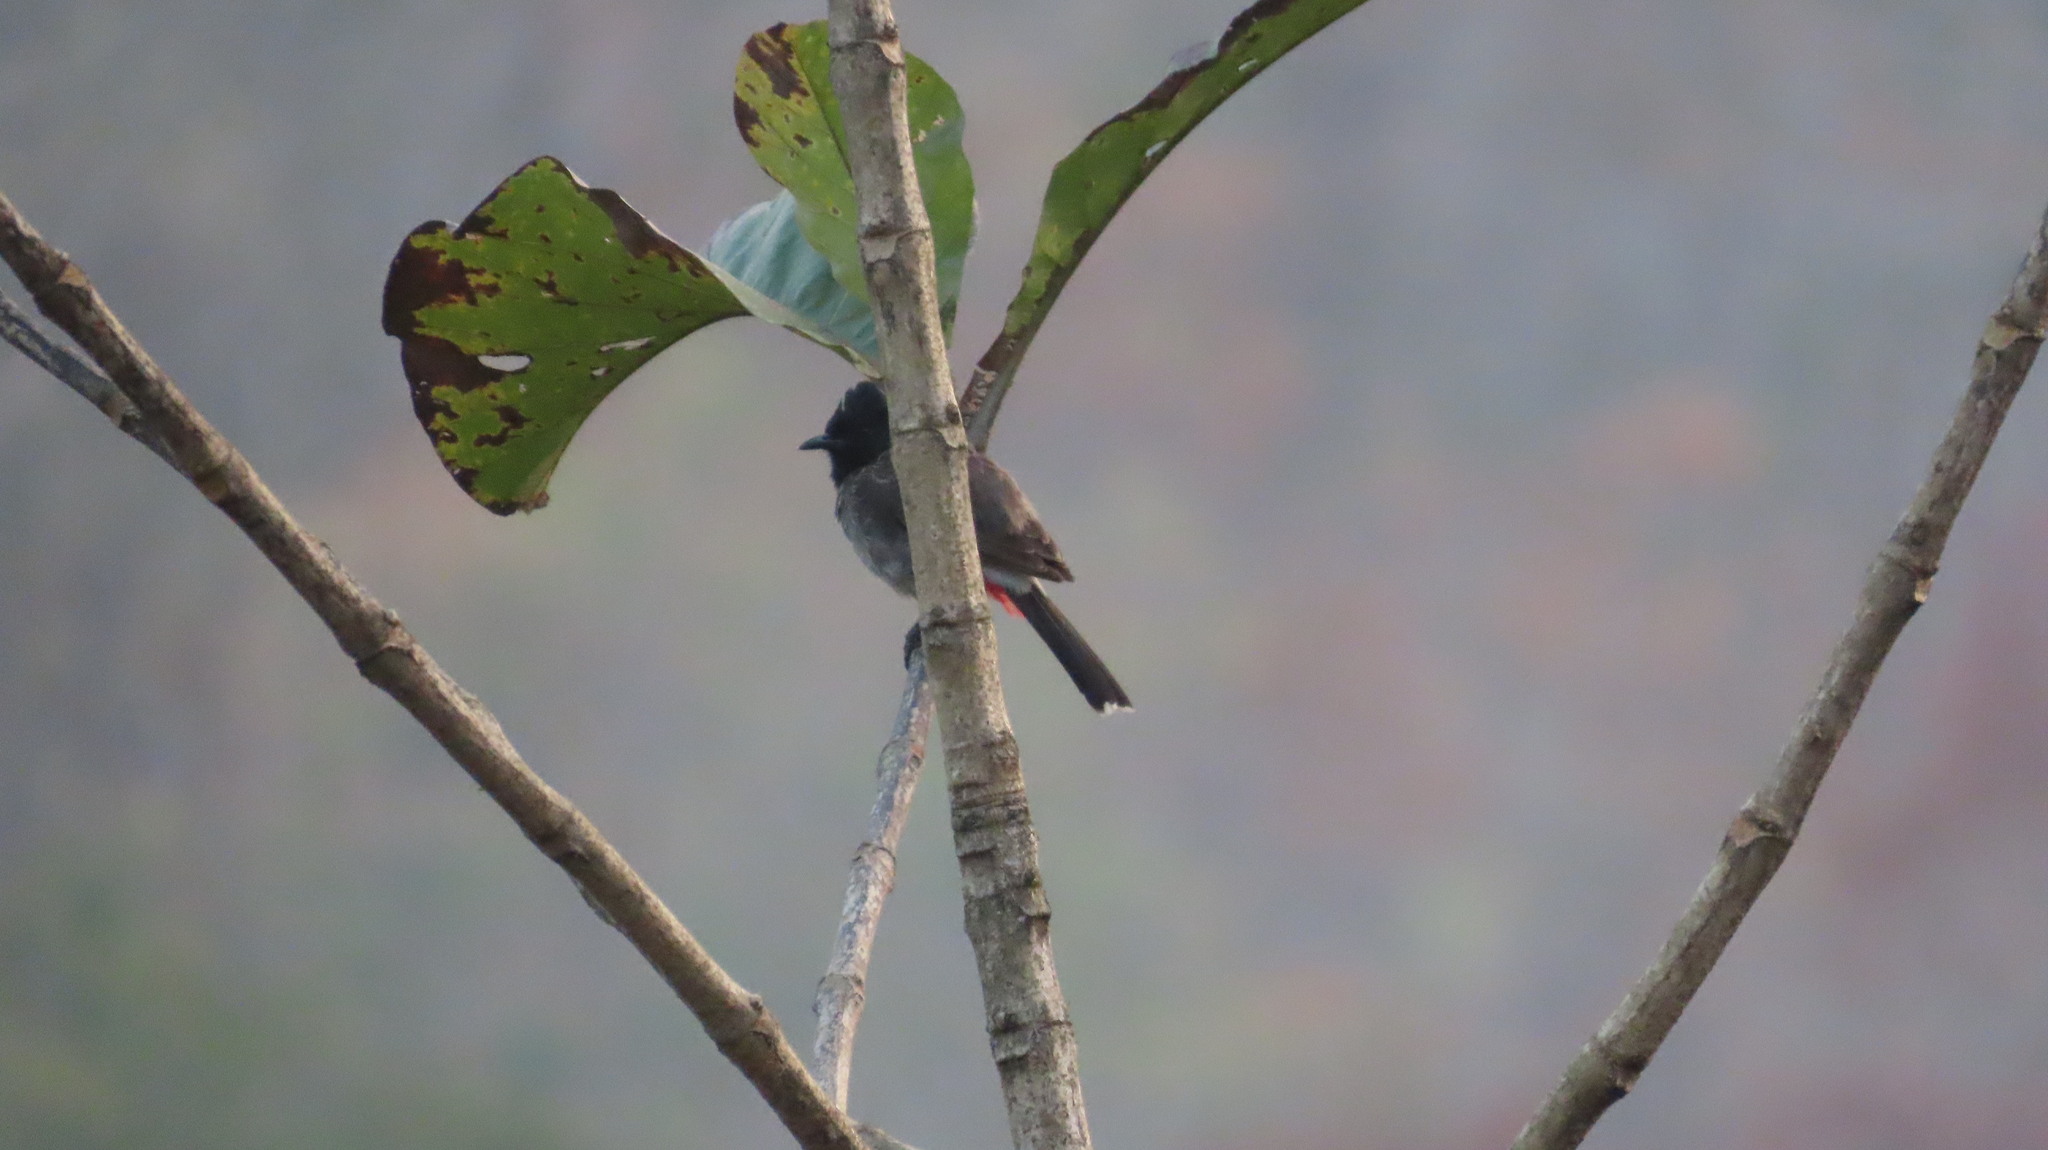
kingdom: Animalia
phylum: Chordata
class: Aves
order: Passeriformes
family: Pycnonotidae
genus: Pycnonotus
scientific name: Pycnonotus cafer
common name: Red-vented bulbul
